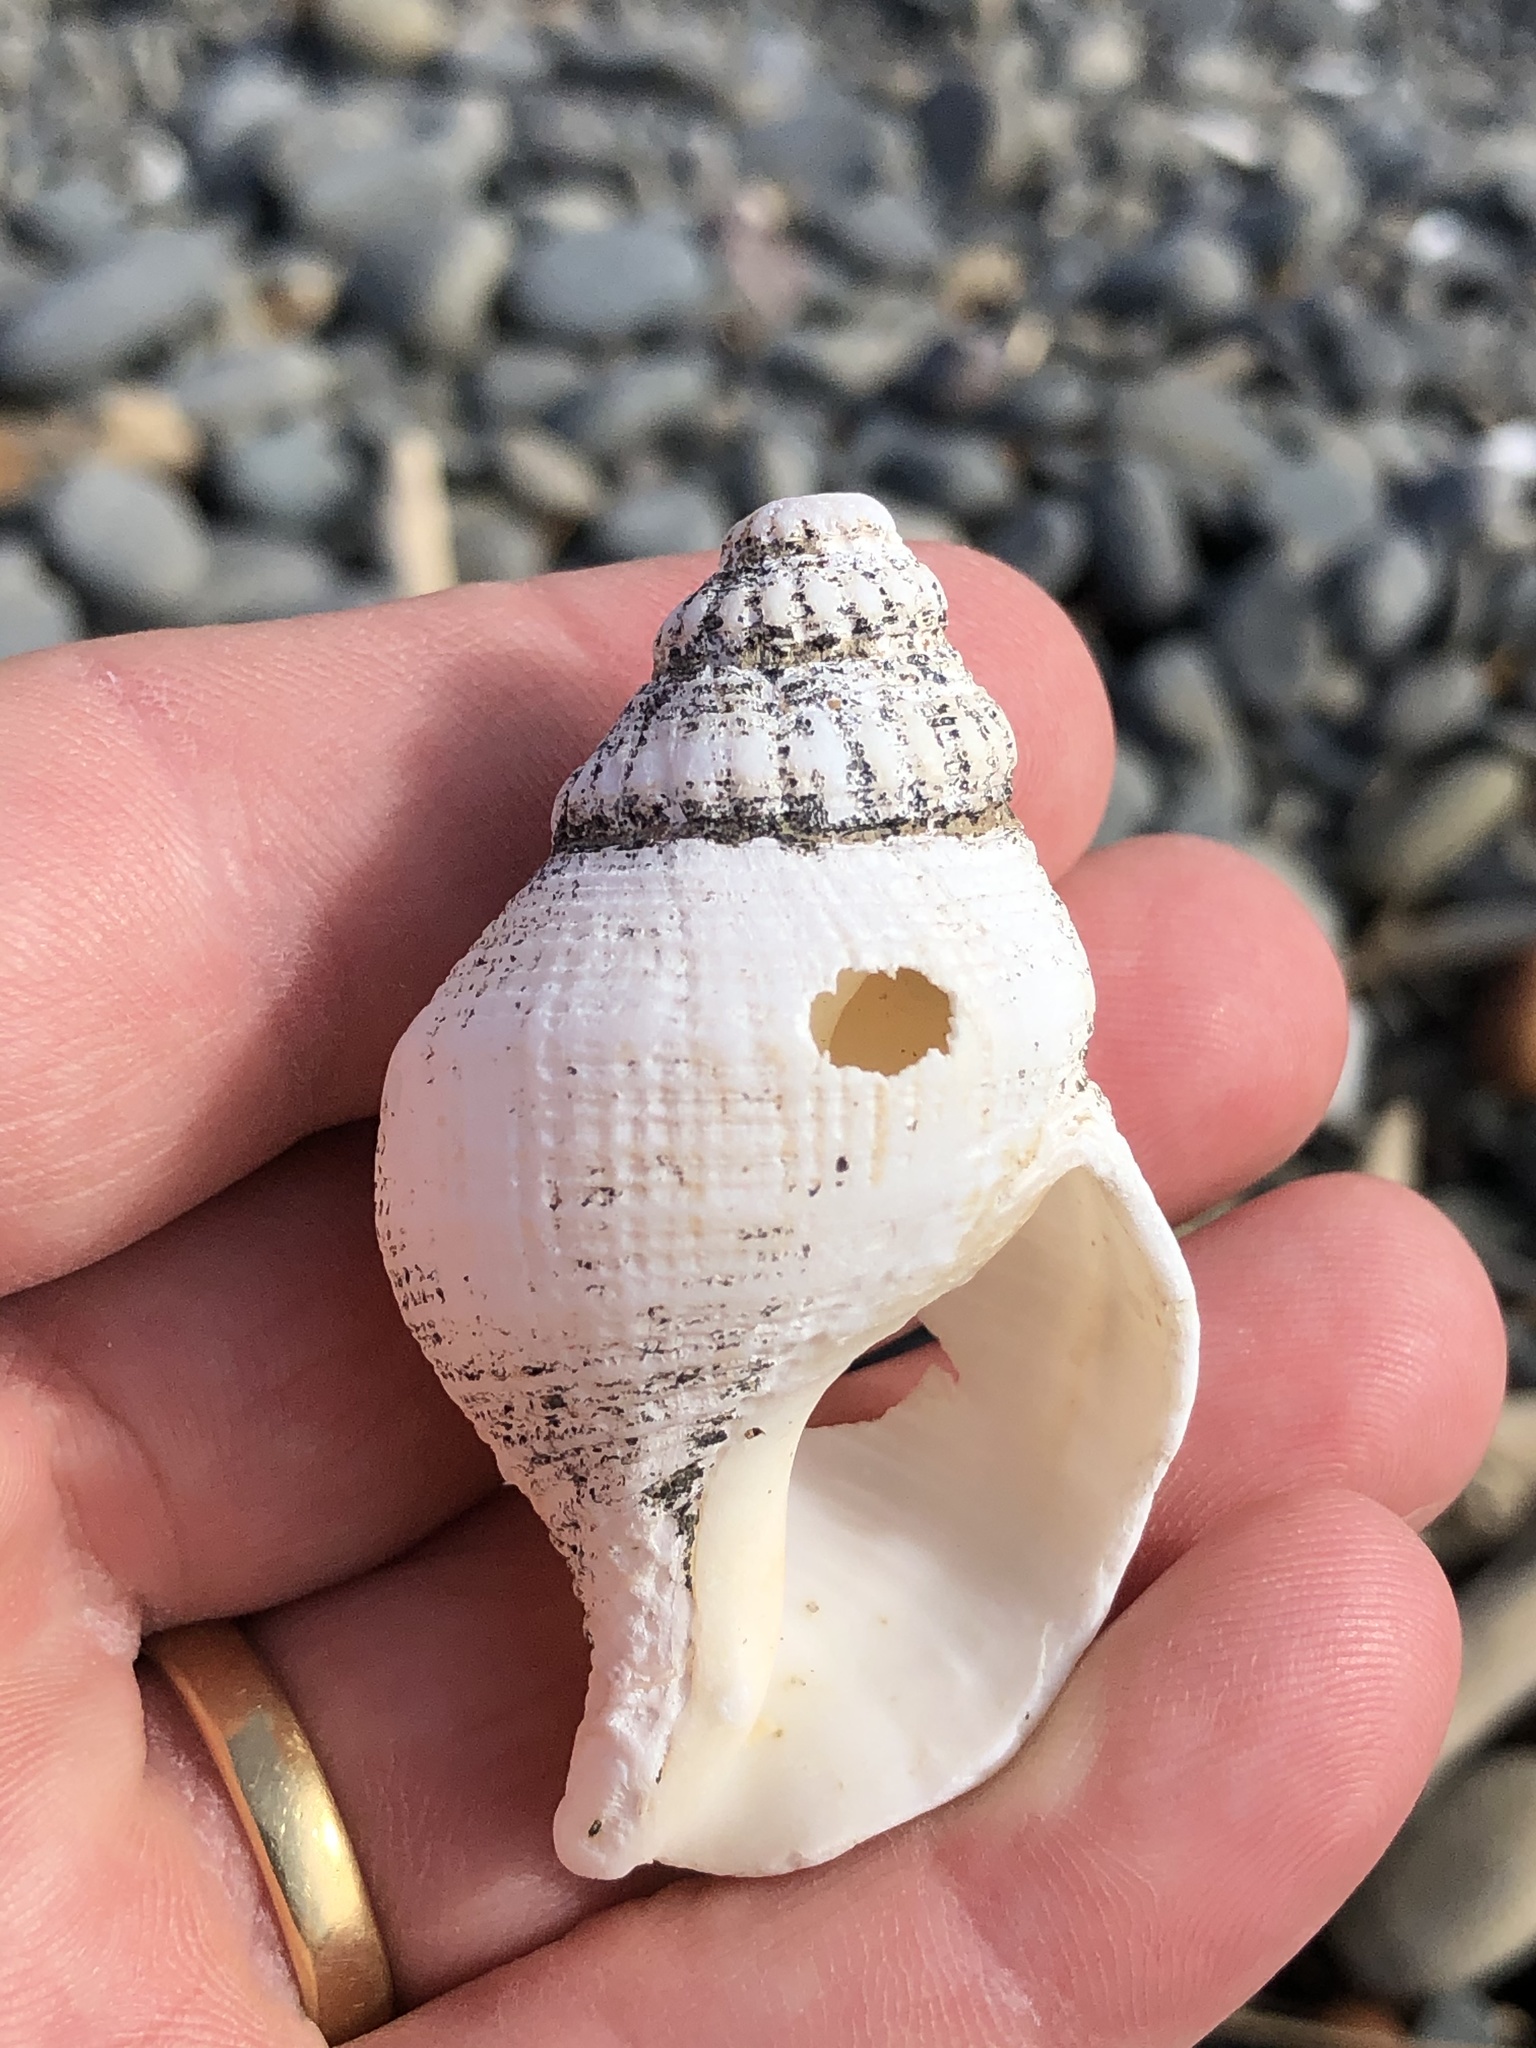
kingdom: Animalia
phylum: Mollusca
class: Gastropoda
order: Neogastropoda
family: Prosiphonidae
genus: Austrofusus
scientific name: Austrofusus glans
